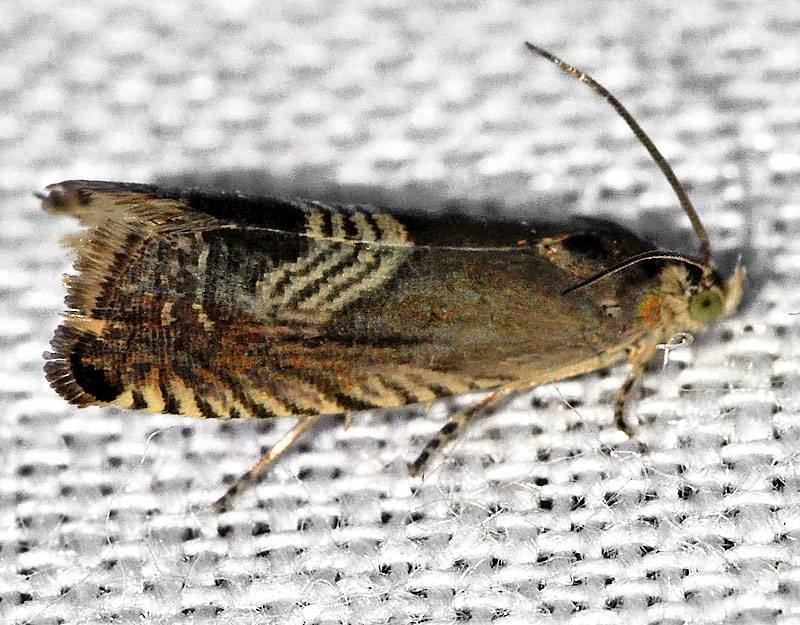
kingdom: Animalia
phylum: Arthropoda
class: Insecta
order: Lepidoptera
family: Tortricidae
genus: Grapholita
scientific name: Grapholita tristrigana
